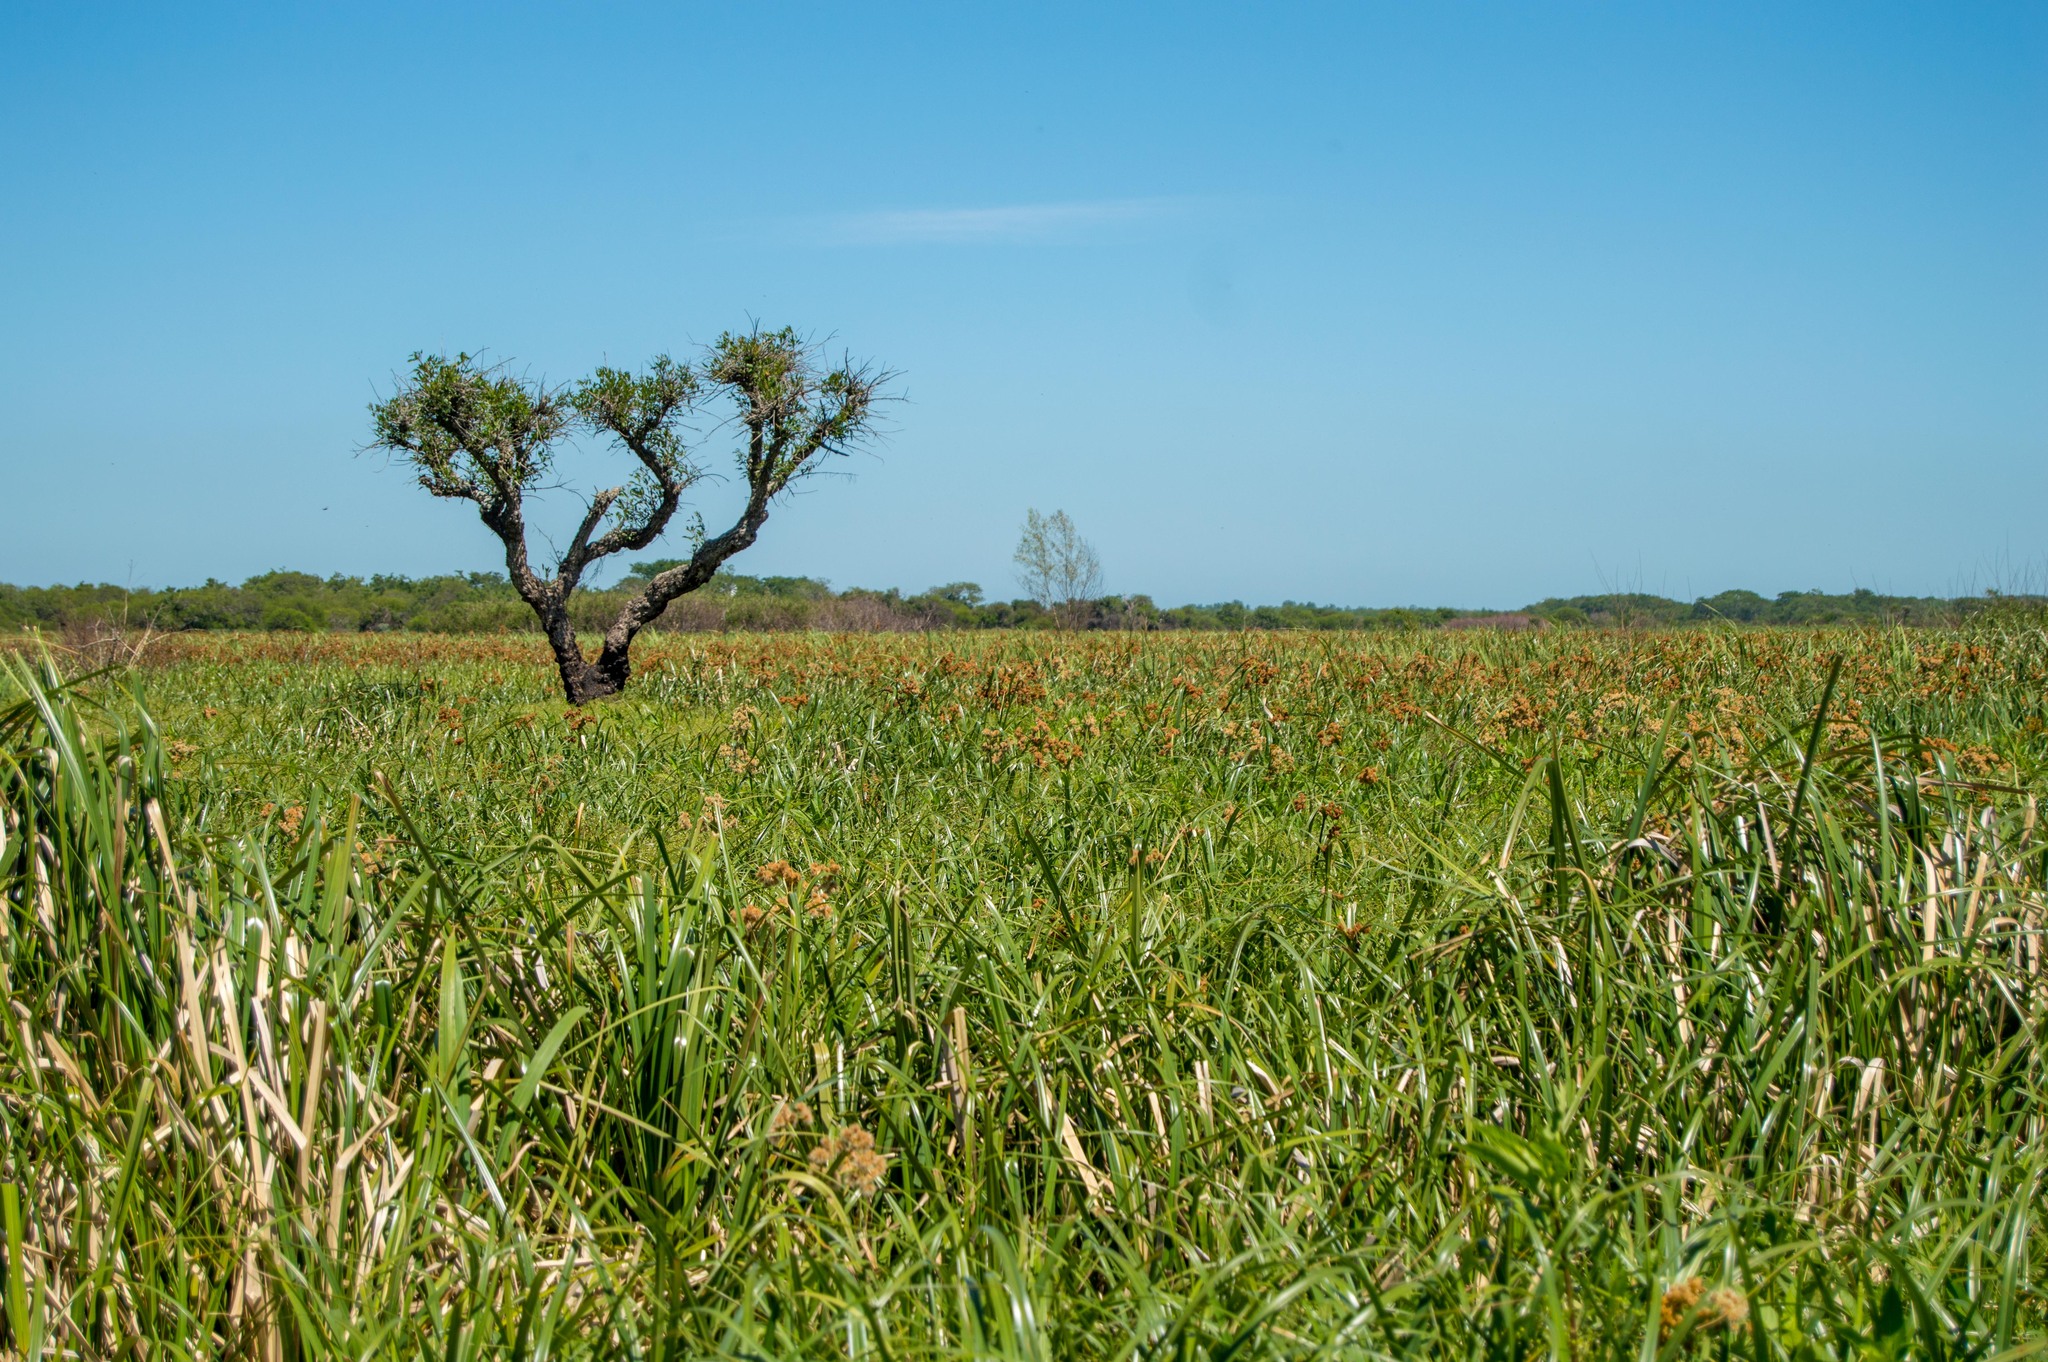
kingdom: Plantae
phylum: Tracheophyta
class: Magnoliopsida
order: Fabales
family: Fabaceae
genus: Erythrina
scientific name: Erythrina crista-galli
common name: Cockspur coral tree
